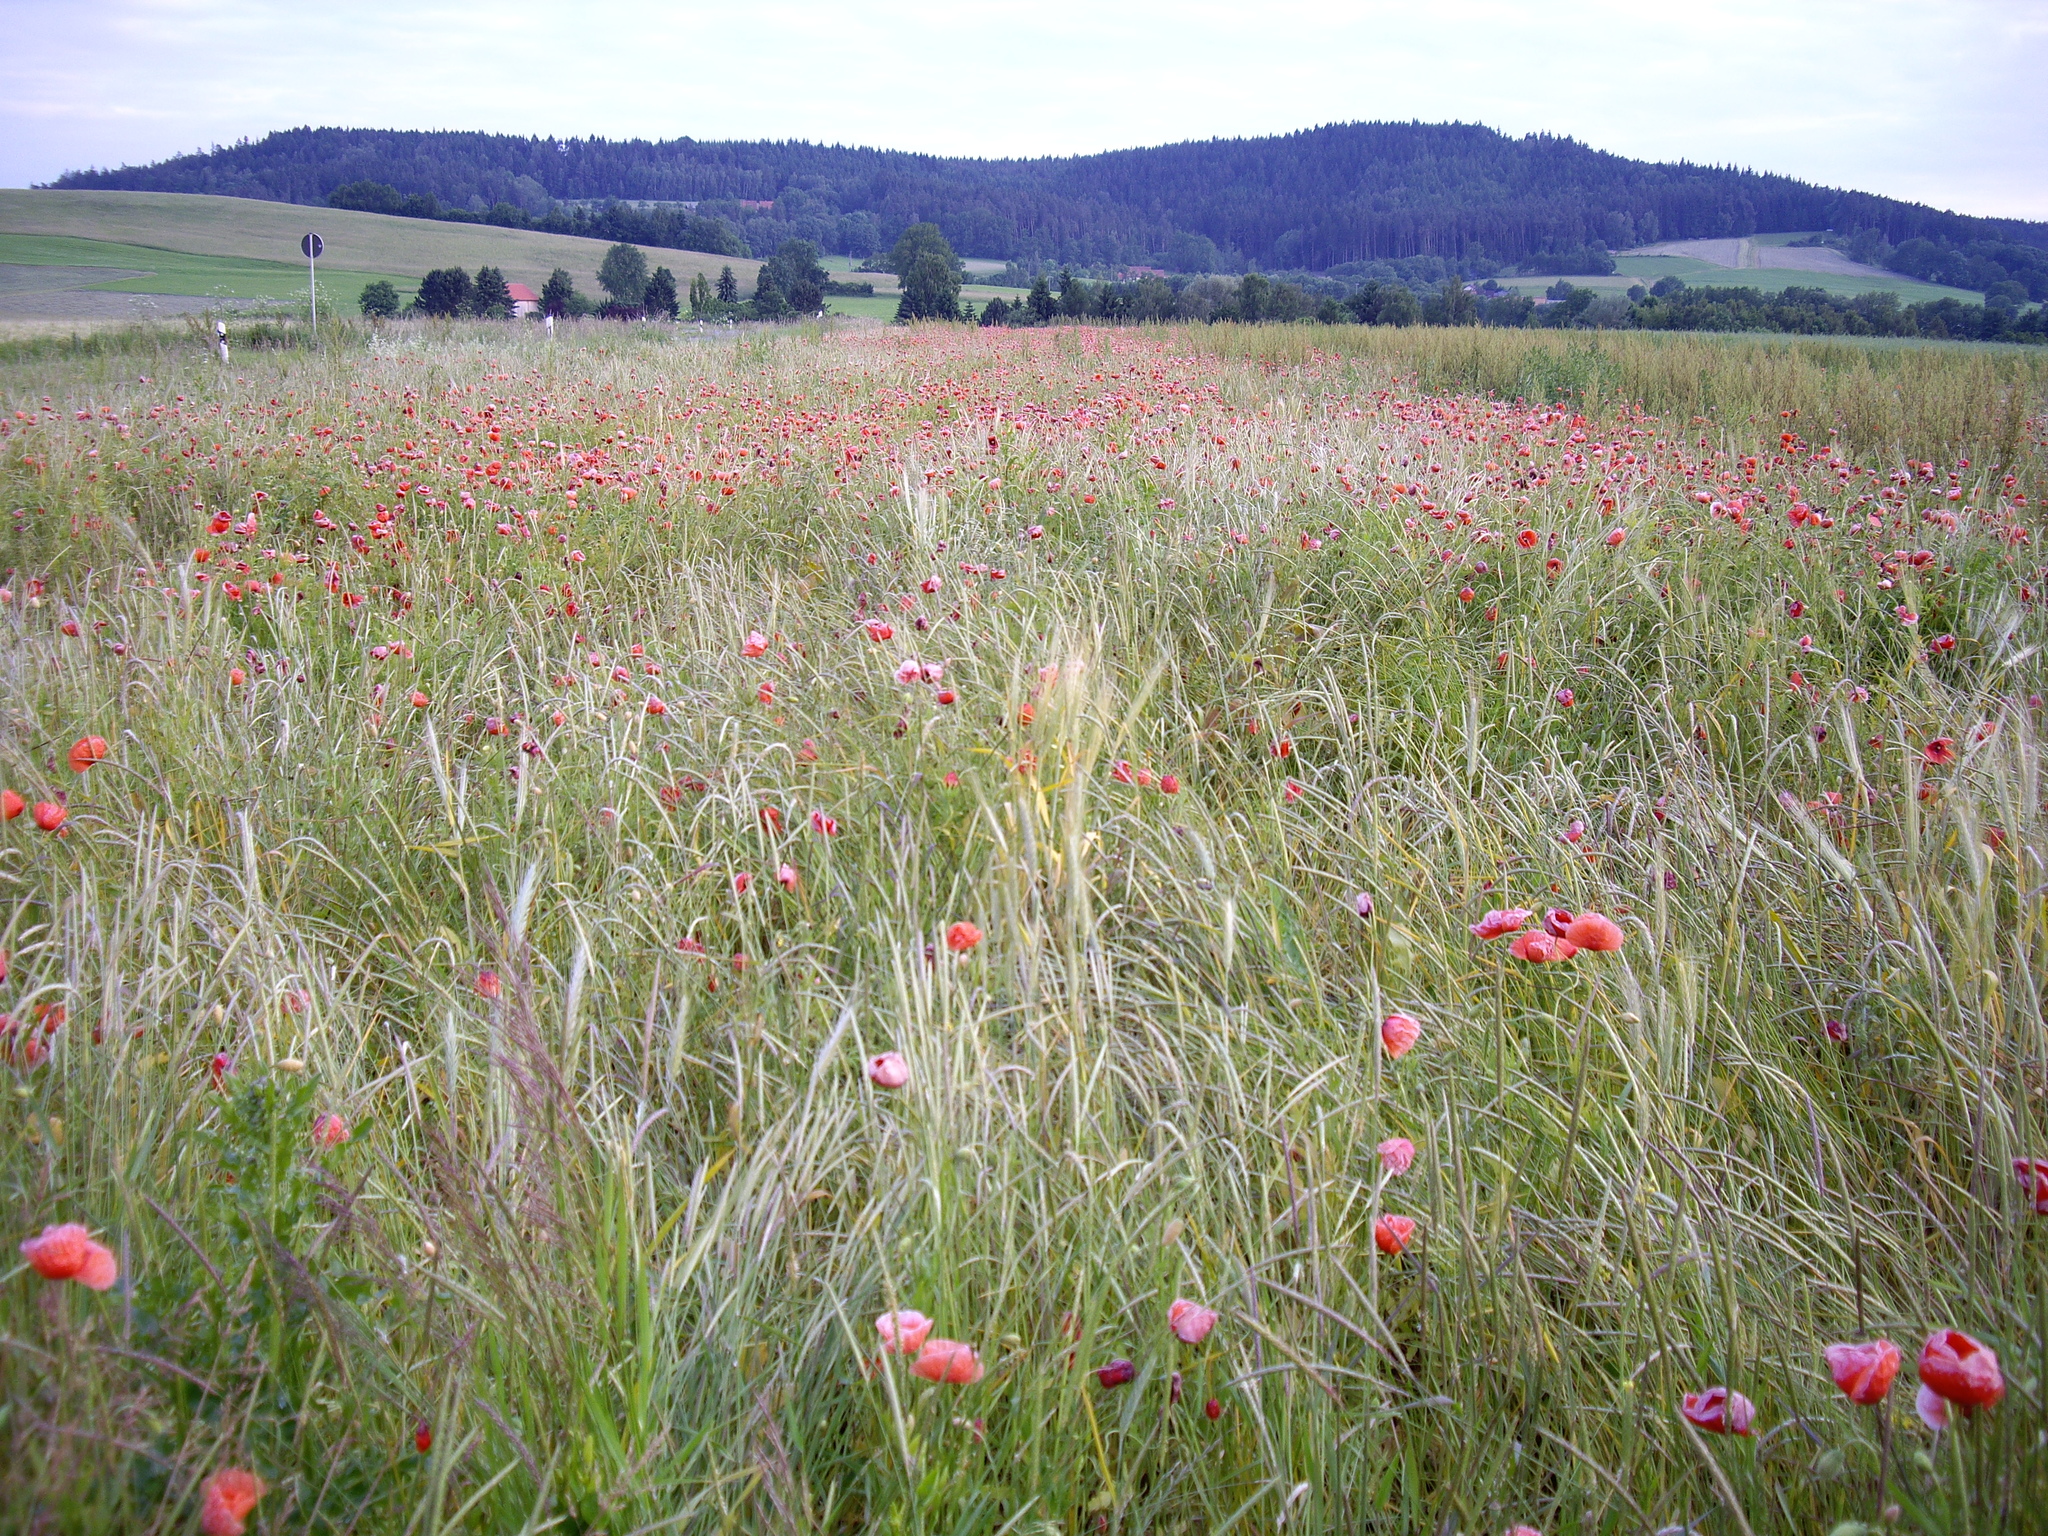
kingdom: Plantae
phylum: Tracheophyta
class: Magnoliopsida
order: Ranunculales
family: Papaveraceae
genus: Papaver
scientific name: Papaver rhoeas
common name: Corn poppy
